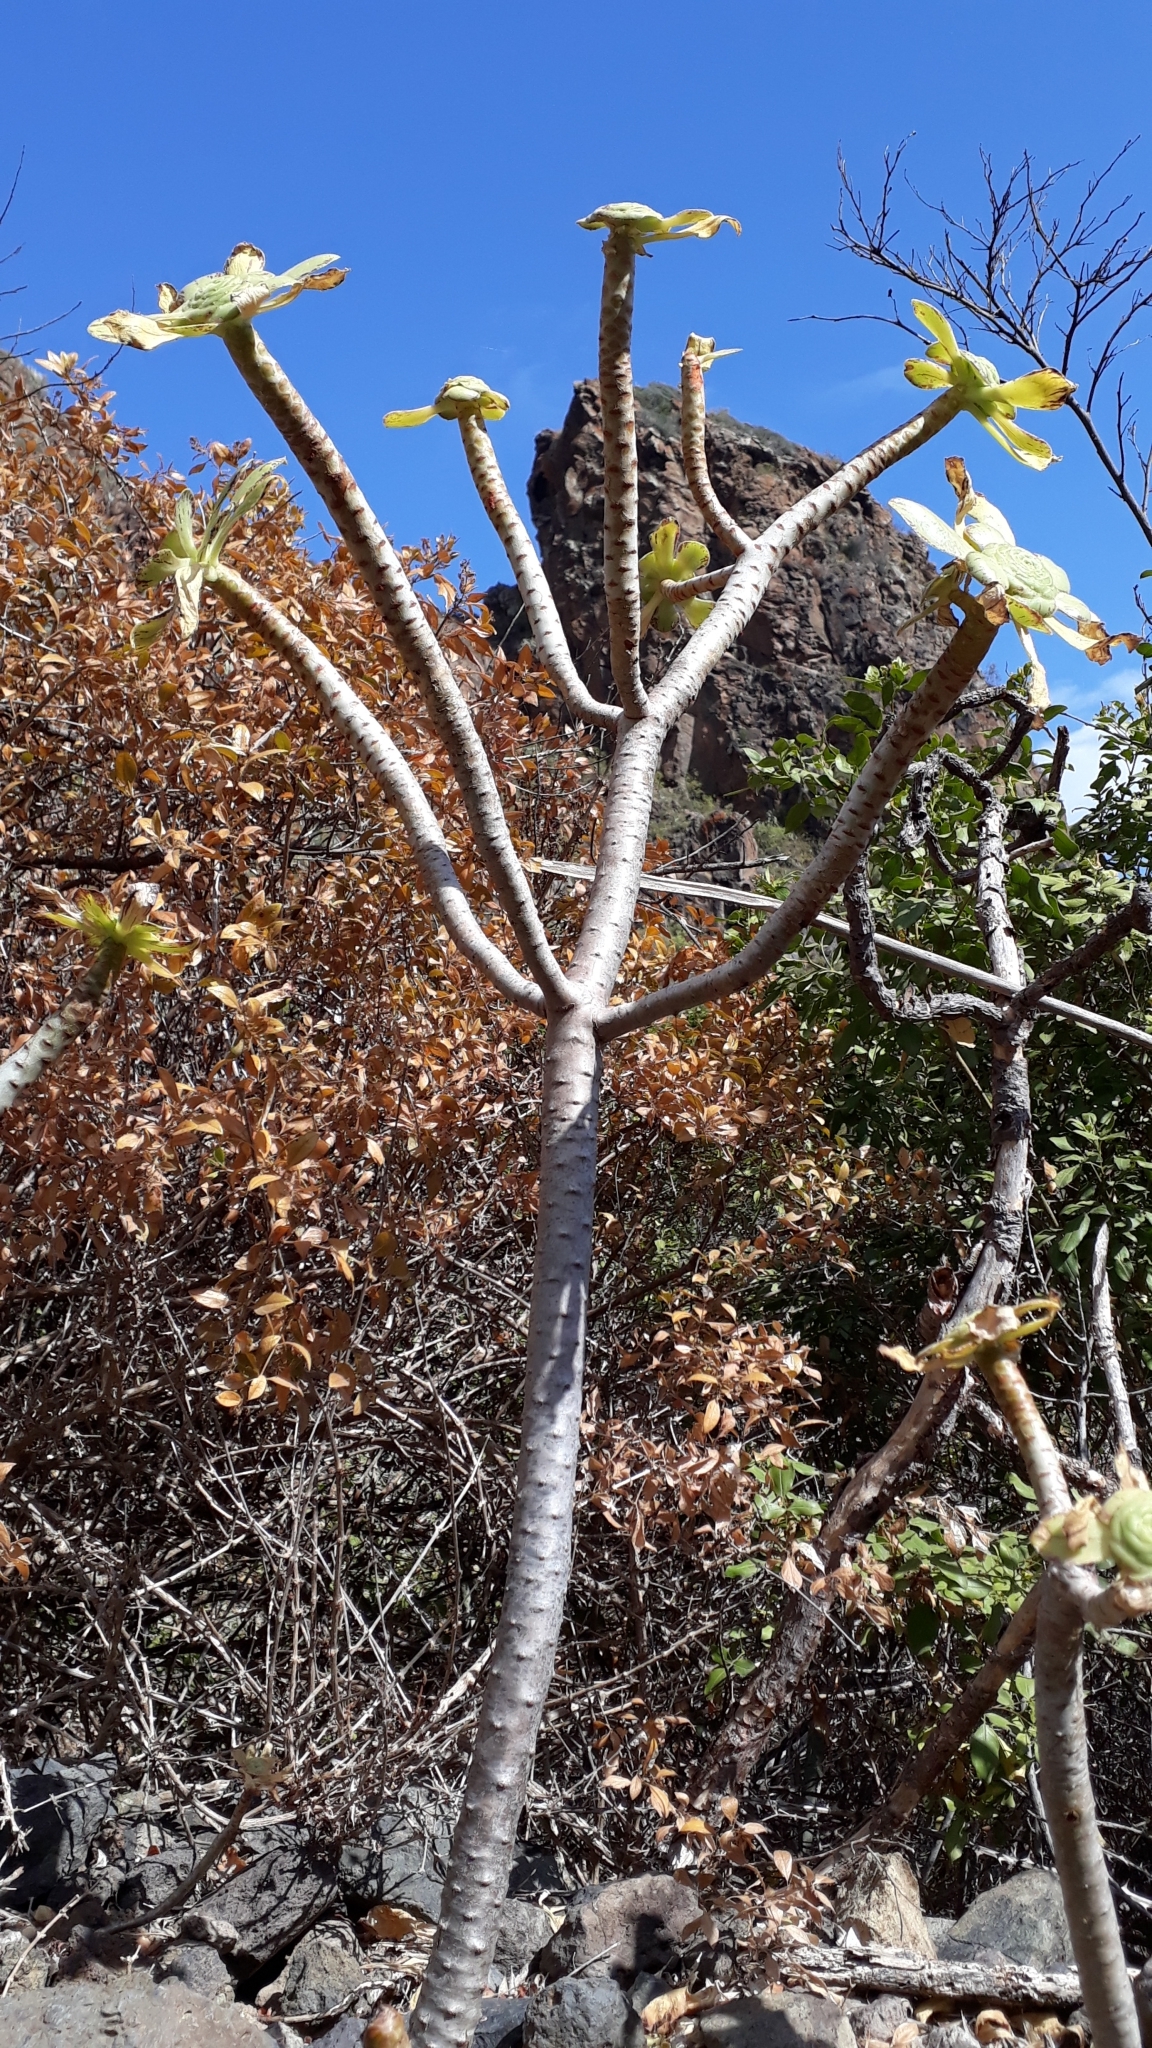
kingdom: Plantae
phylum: Tracheophyta
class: Magnoliopsida
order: Saxifragales
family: Crassulaceae
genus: Aeonium
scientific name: Aeonium arboreum
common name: Tree aeonium
